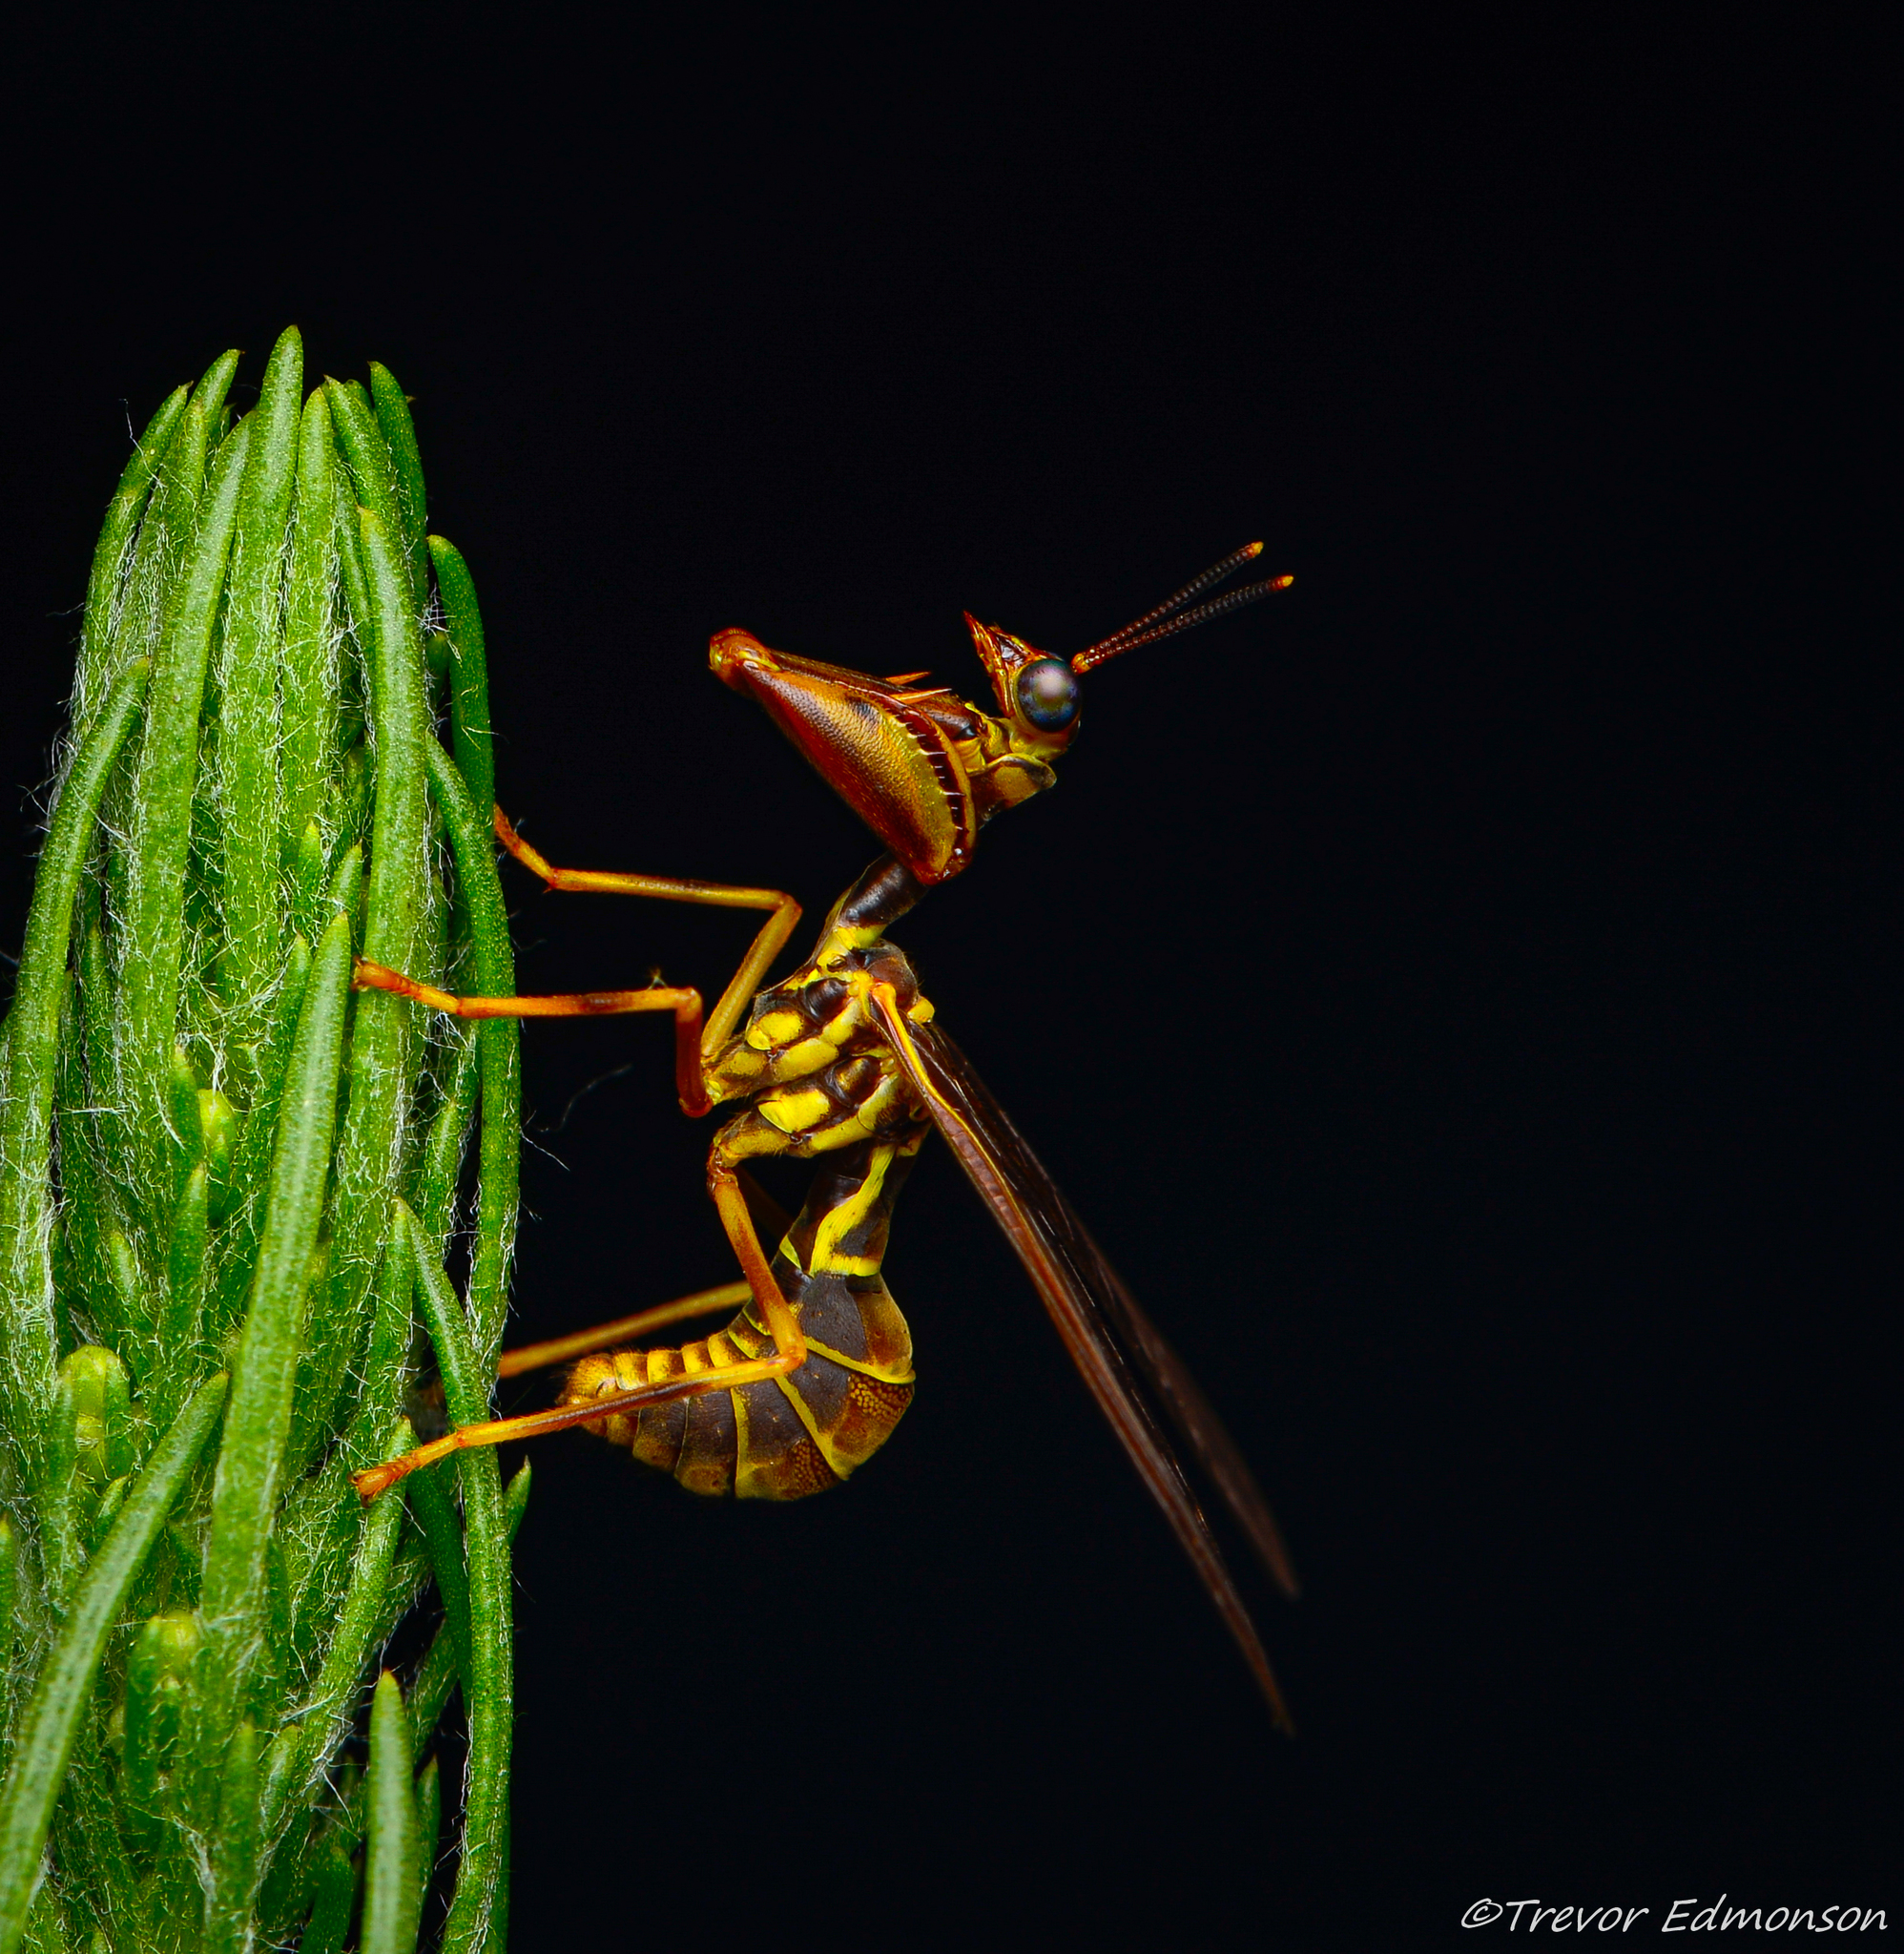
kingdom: Animalia
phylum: Arthropoda
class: Insecta
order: Neuroptera
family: Mantispidae
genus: Climaciella
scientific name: Climaciella brunnea
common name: Brown wasp mantidfly
